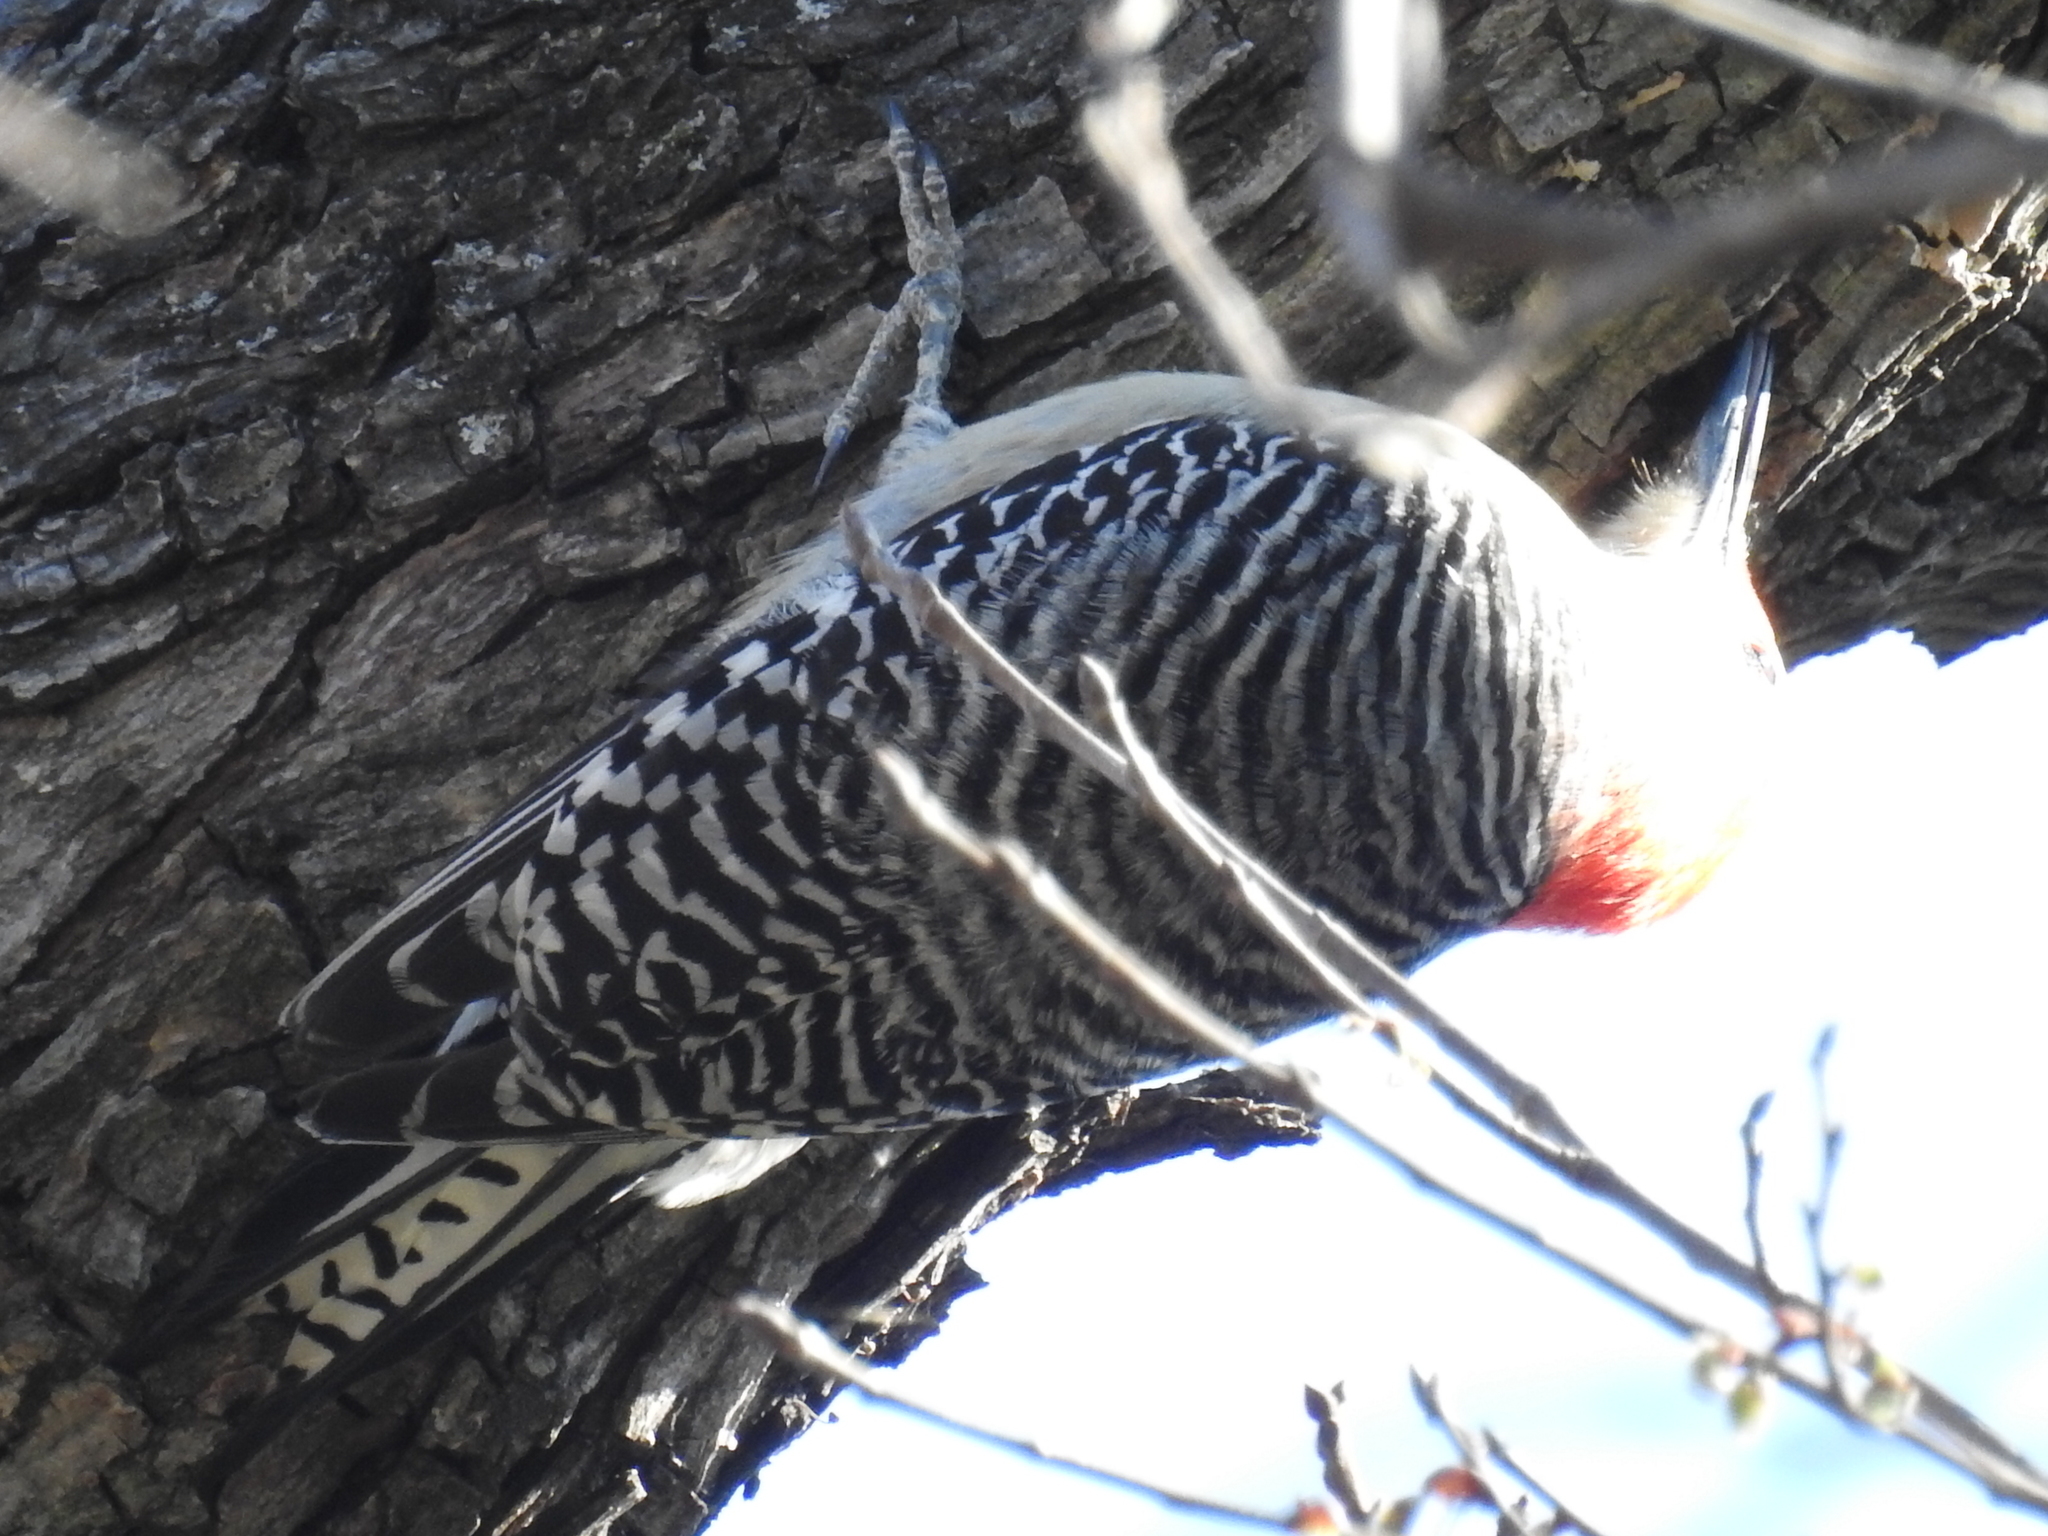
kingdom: Animalia
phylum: Chordata
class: Aves
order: Piciformes
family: Picidae
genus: Melanerpes
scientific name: Melanerpes carolinus
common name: Red-bellied woodpecker
